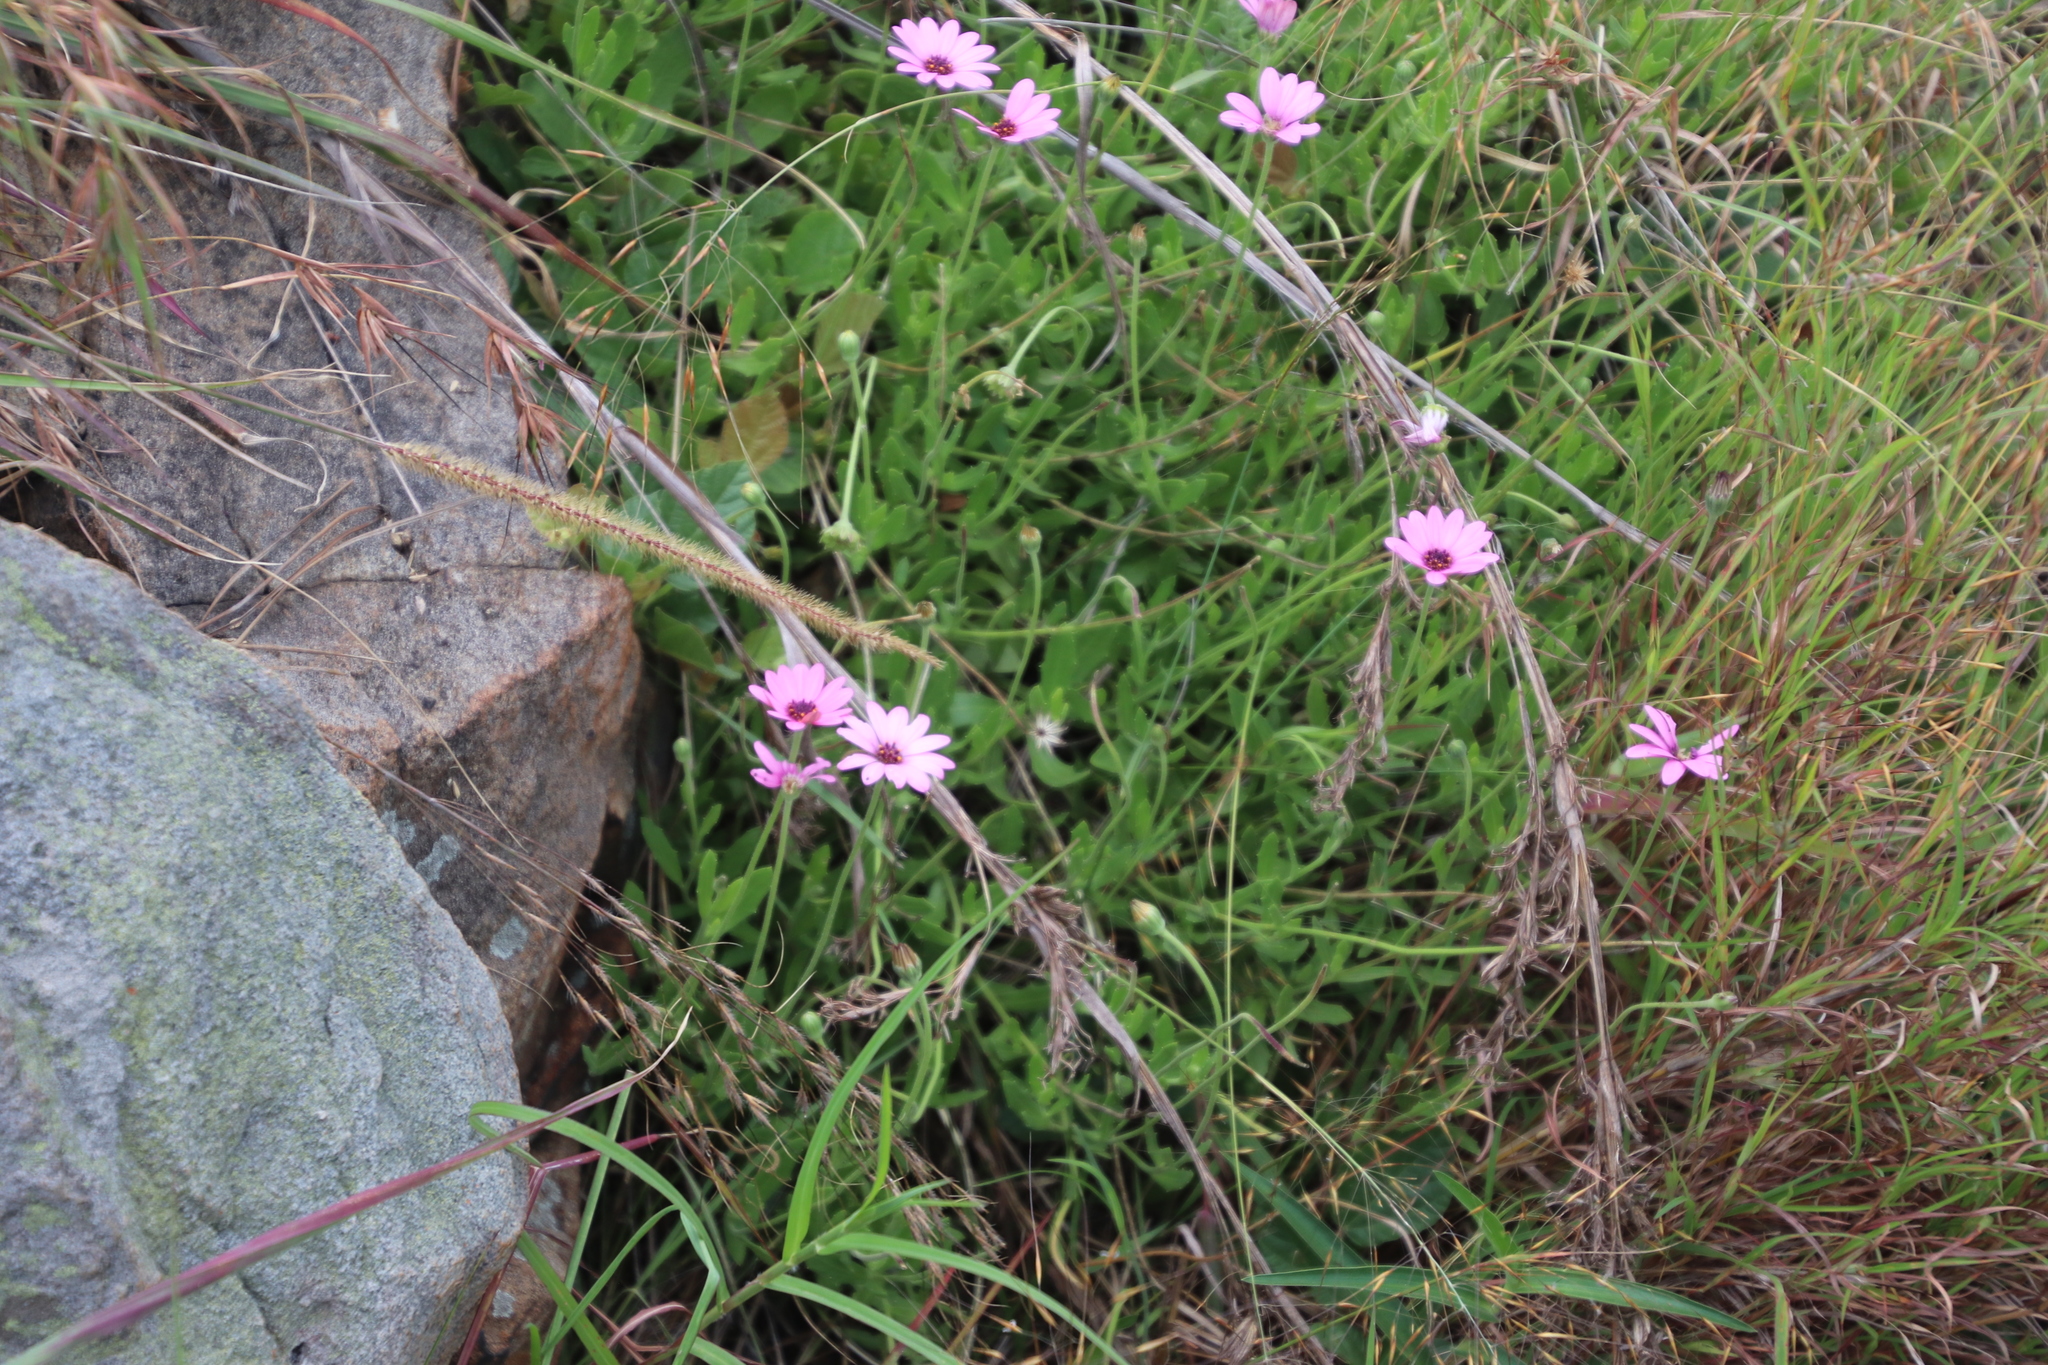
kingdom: Plantae
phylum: Tracheophyta
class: Magnoliopsida
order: Asterales
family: Asteraceae
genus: Dimorphotheca
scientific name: Dimorphotheca jucunda
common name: Osteospermum
